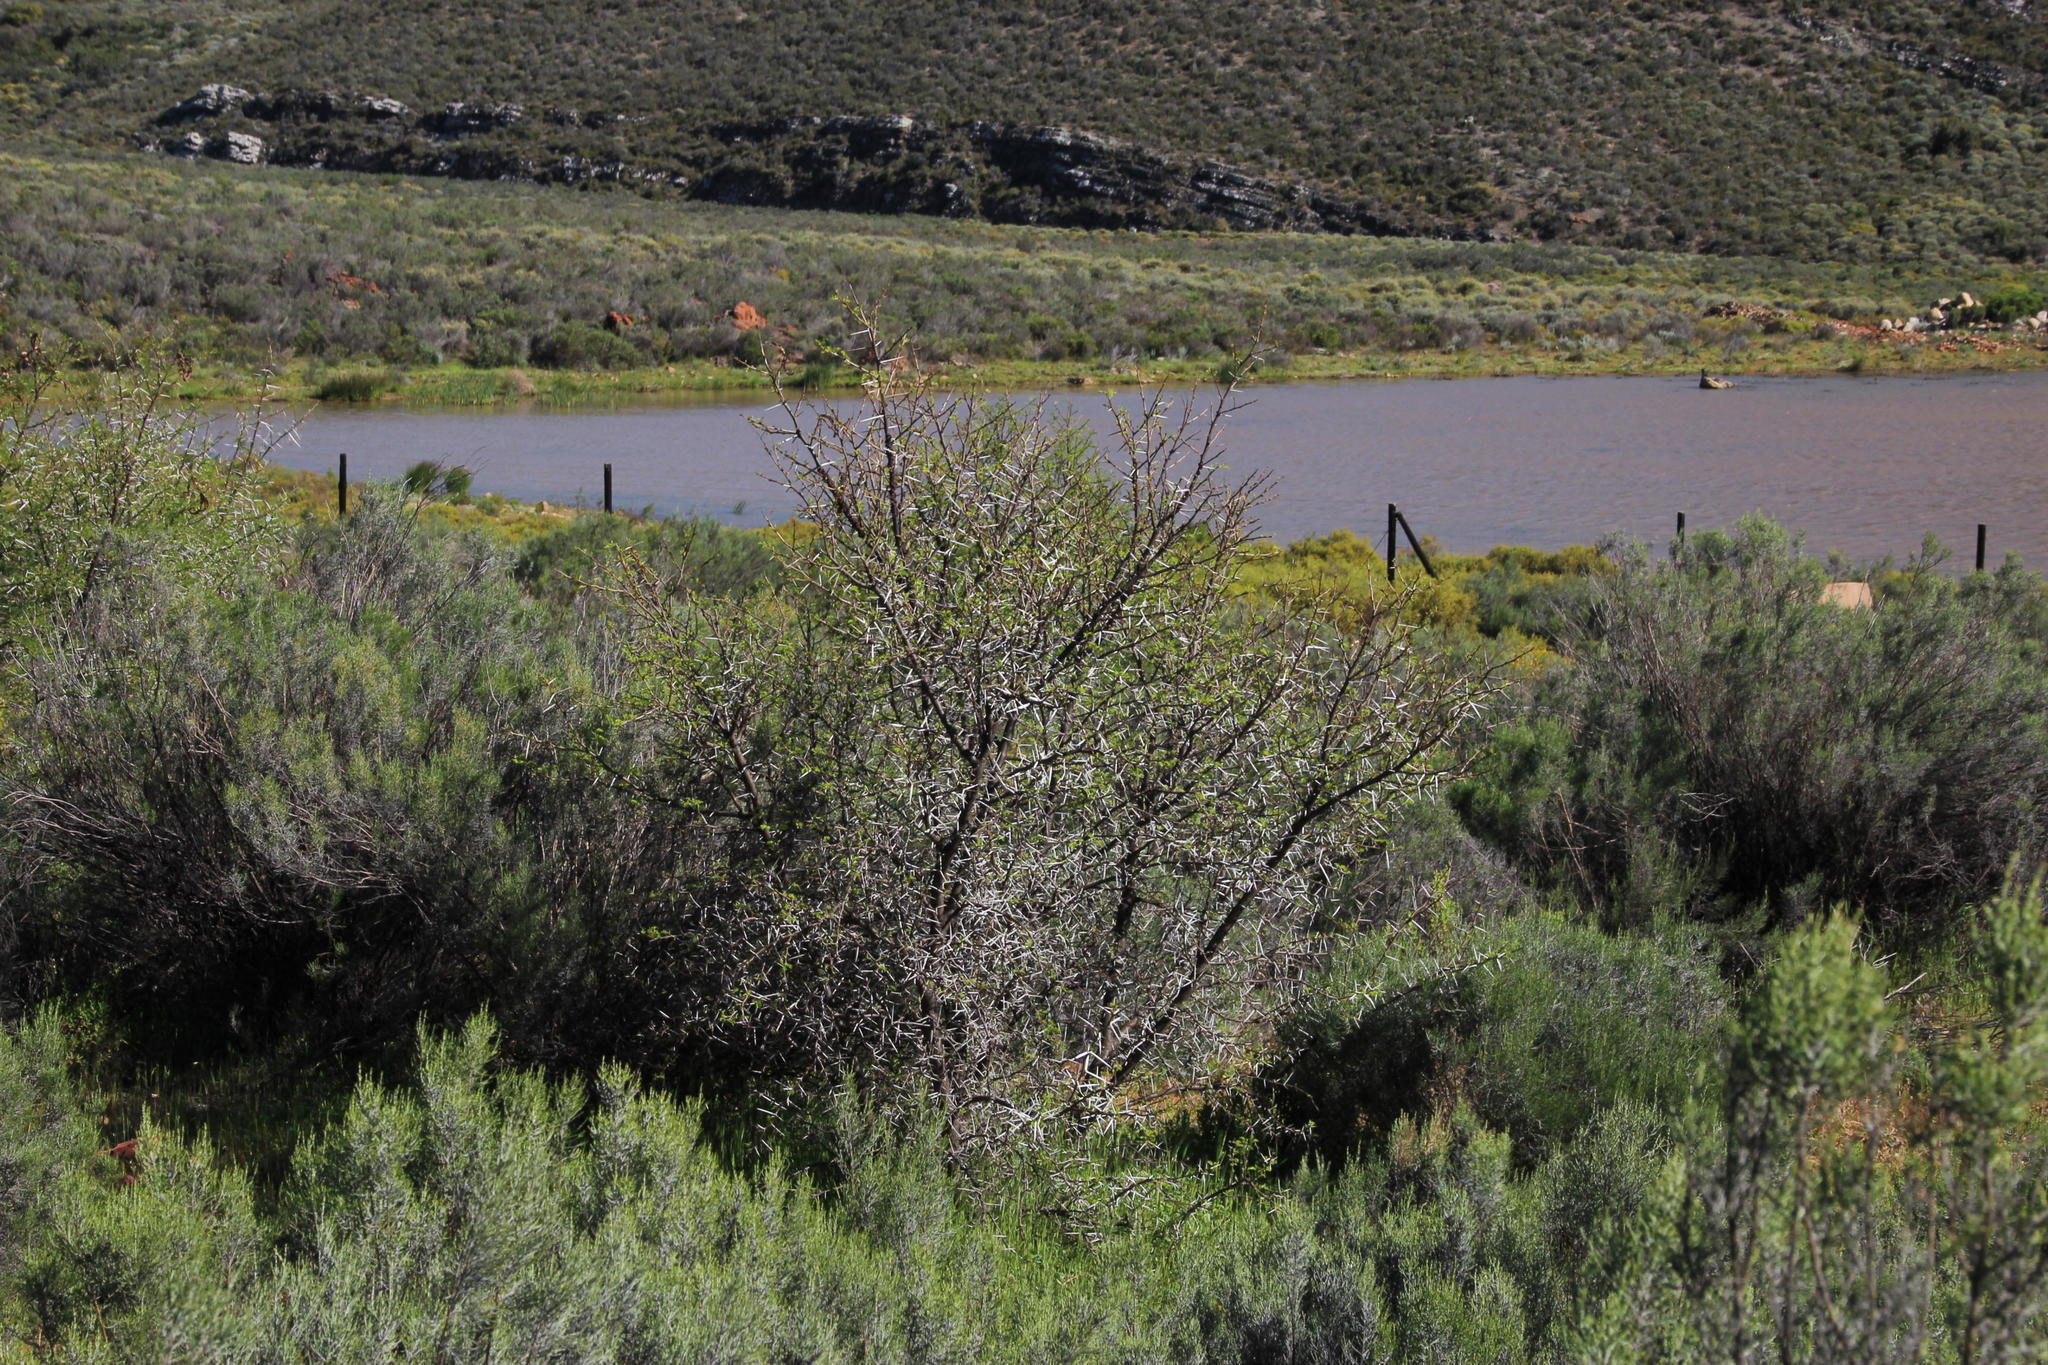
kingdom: Plantae
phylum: Tracheophyta
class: Magnoliopsida
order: Fabales
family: Fabaceae
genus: Vachellia
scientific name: Vachellia karroo
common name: Sweet thorn
